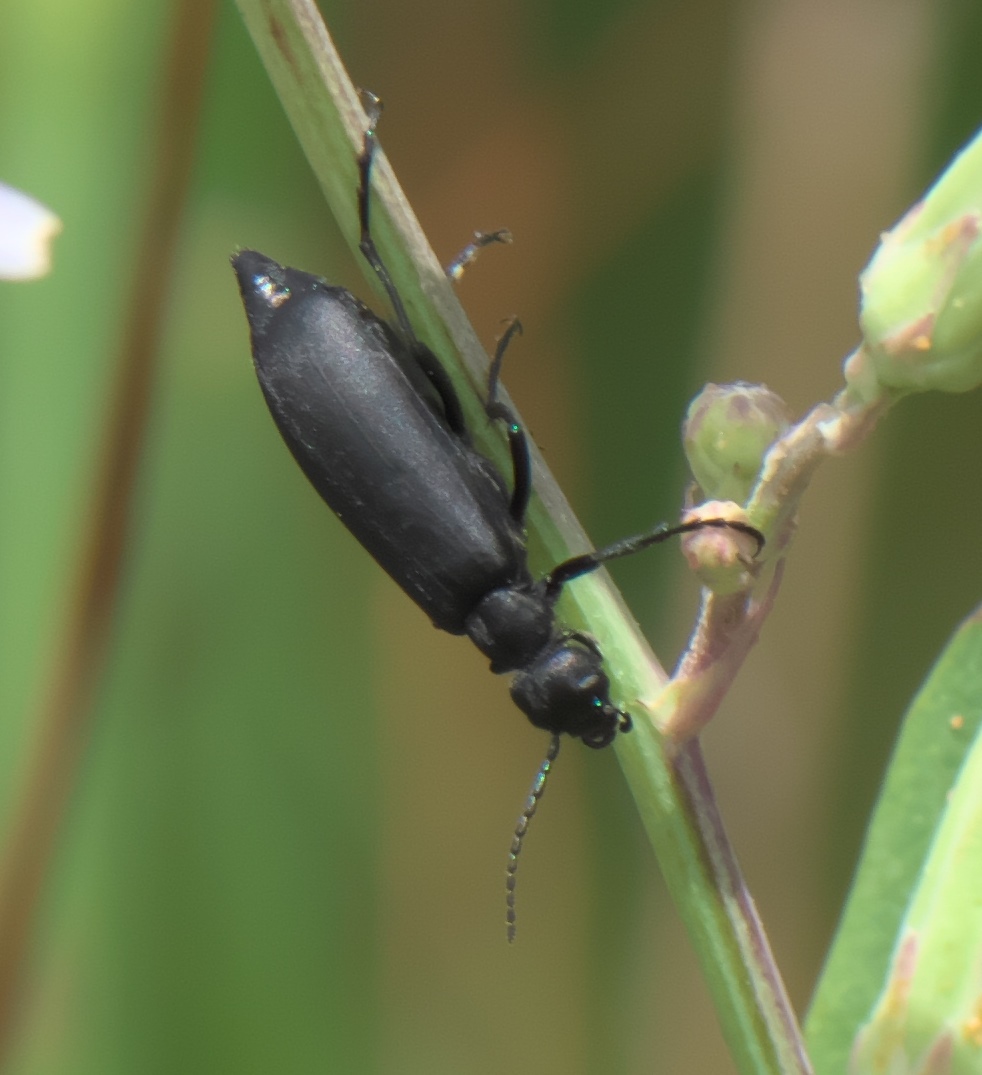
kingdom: Animalia
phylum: Arthropoda
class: Insecta
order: Coleoptera
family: Meloidae
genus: Epicauta
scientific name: Epicauta pensylvanica
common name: Black blister beetle
